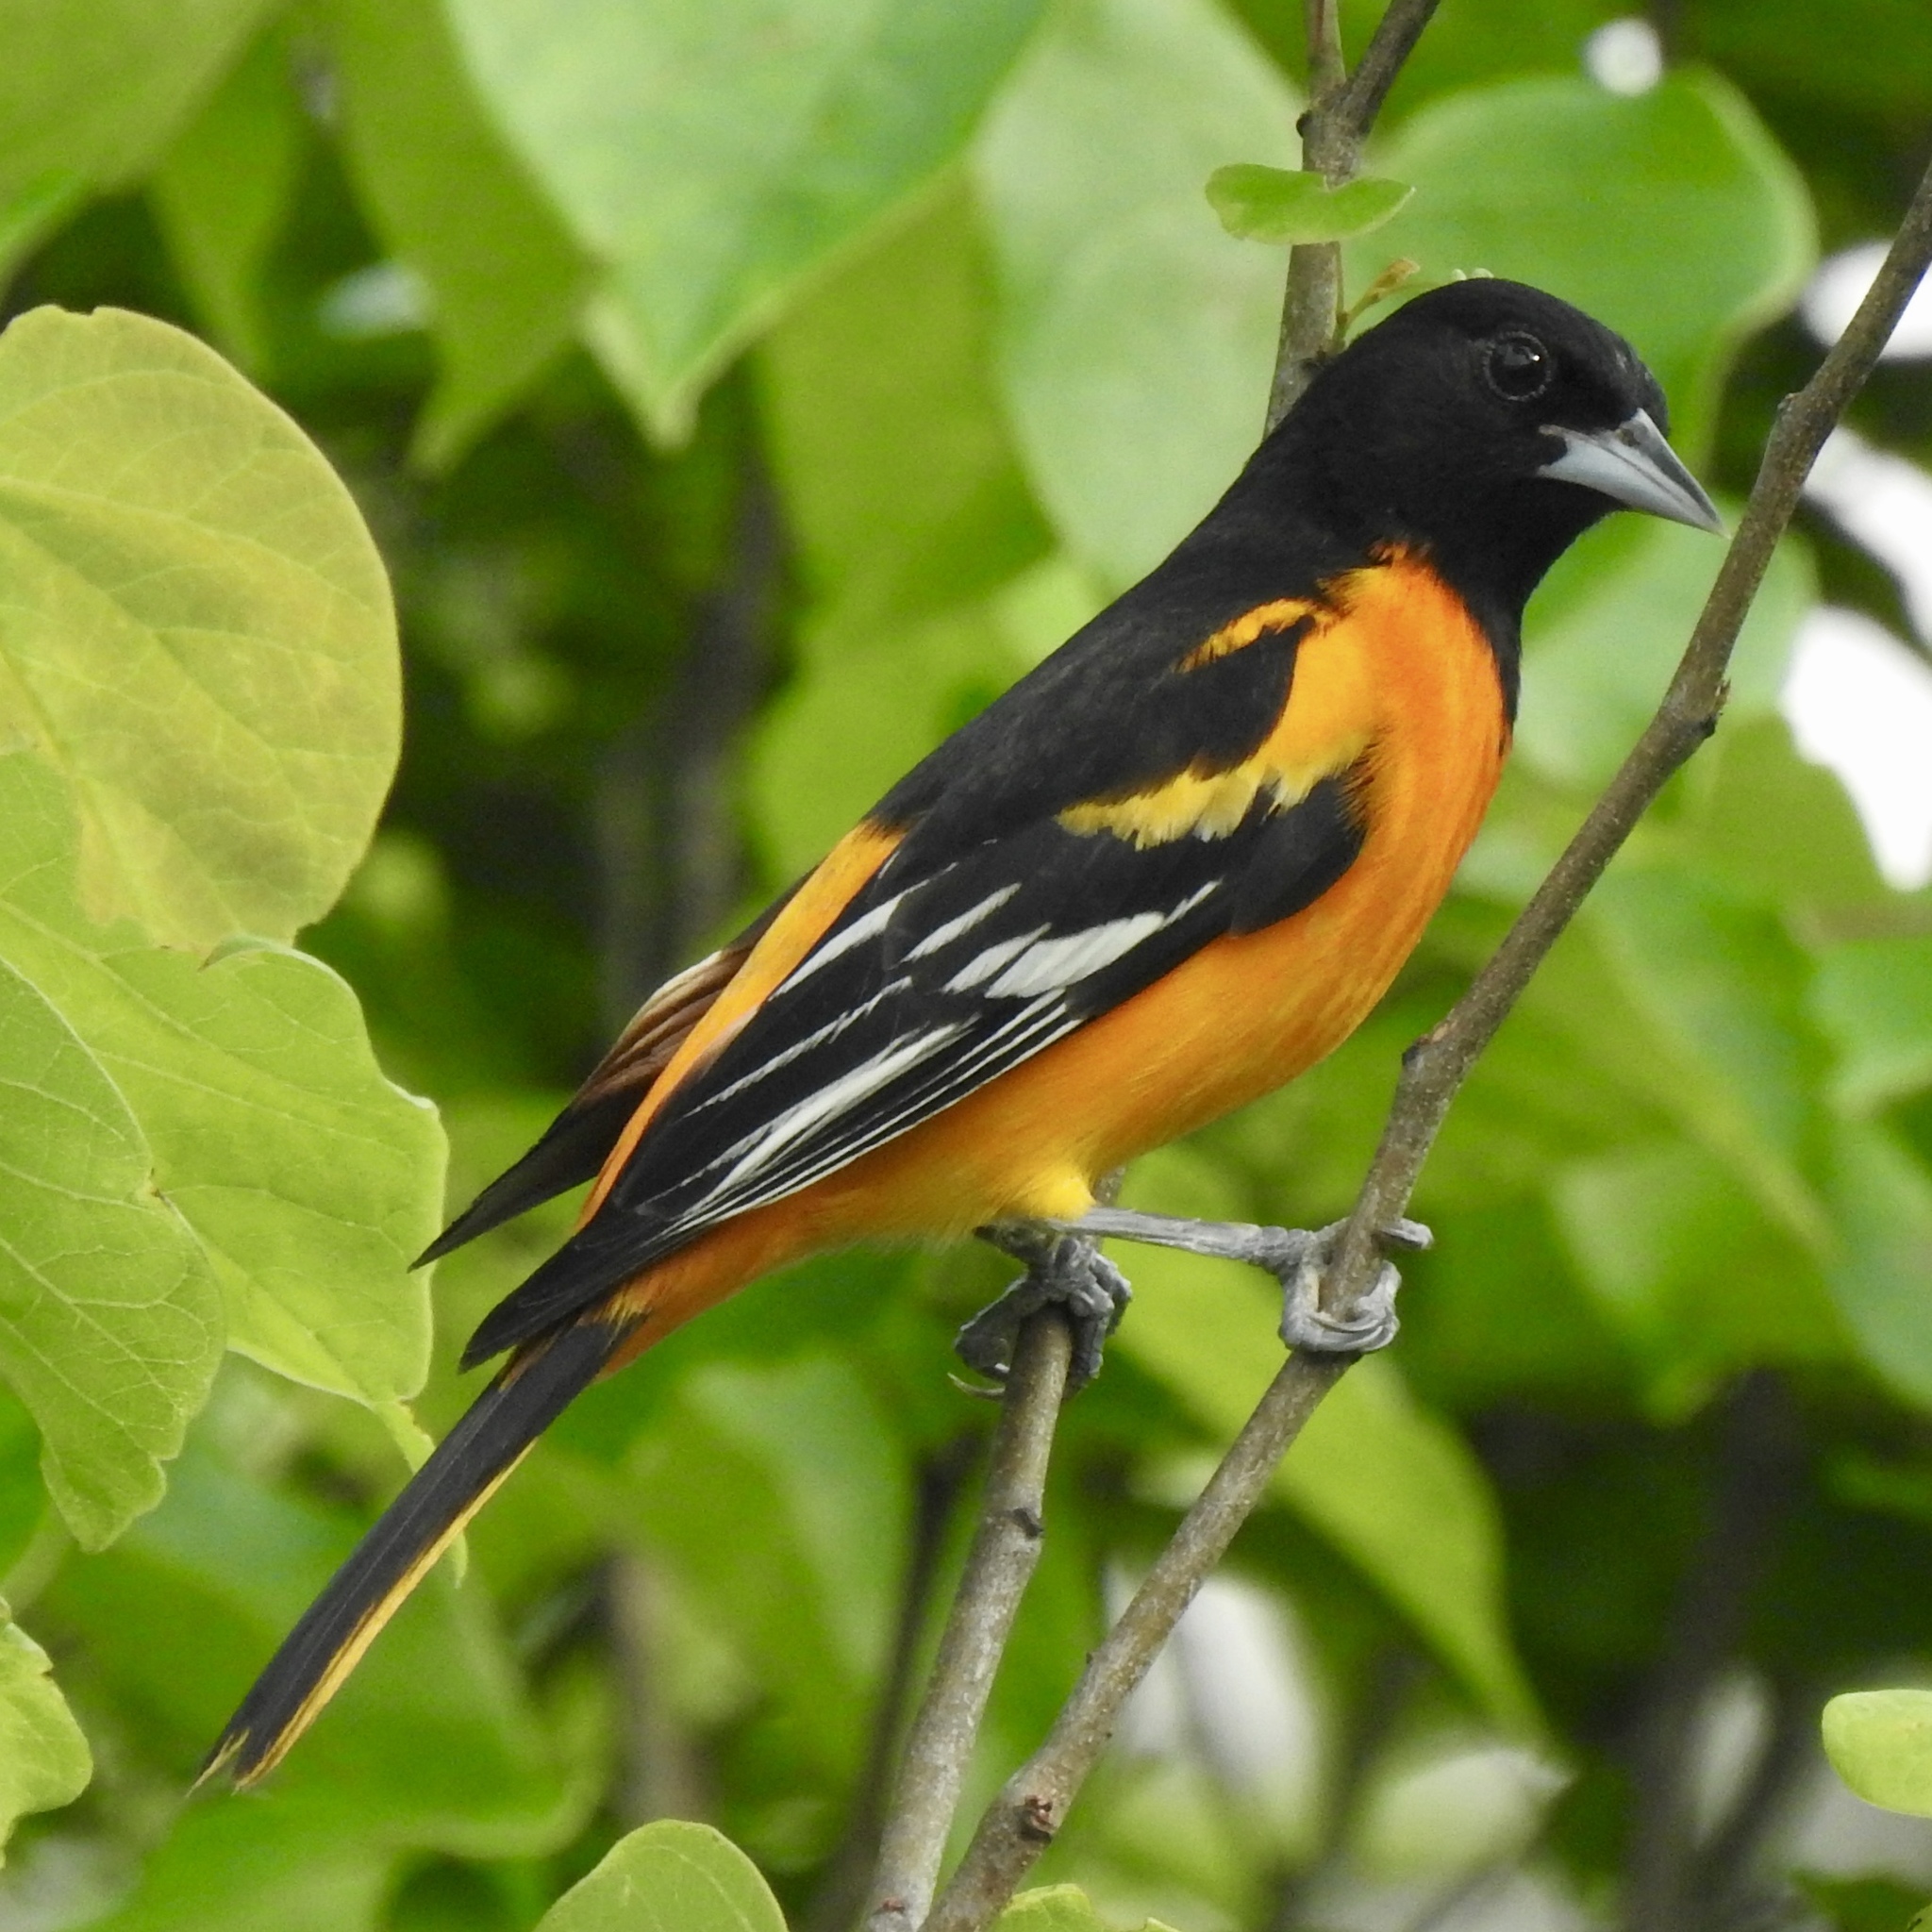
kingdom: Animalia
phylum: Chordata
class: Aves
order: Passeriformes
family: Icteridae
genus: Icterus
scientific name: Icterus galbula
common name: Baltimore oriole
